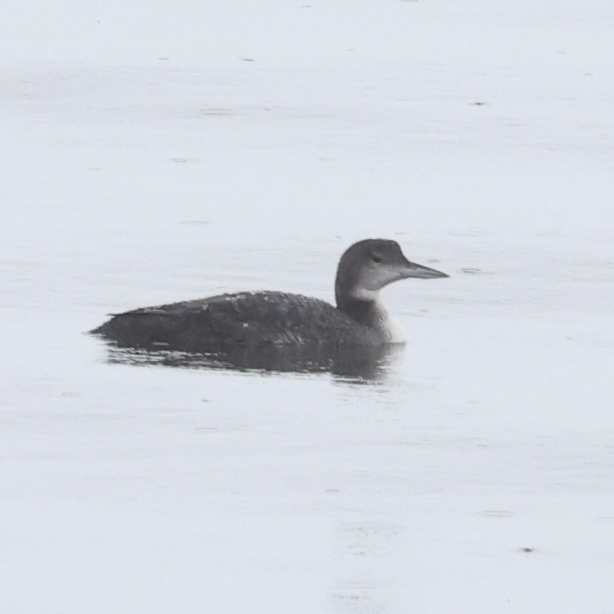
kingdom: Animalia
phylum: Chordata
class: Aves
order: Gaviiformes
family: Gaviidae
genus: Gavia
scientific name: Gavia immer
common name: Common loon
